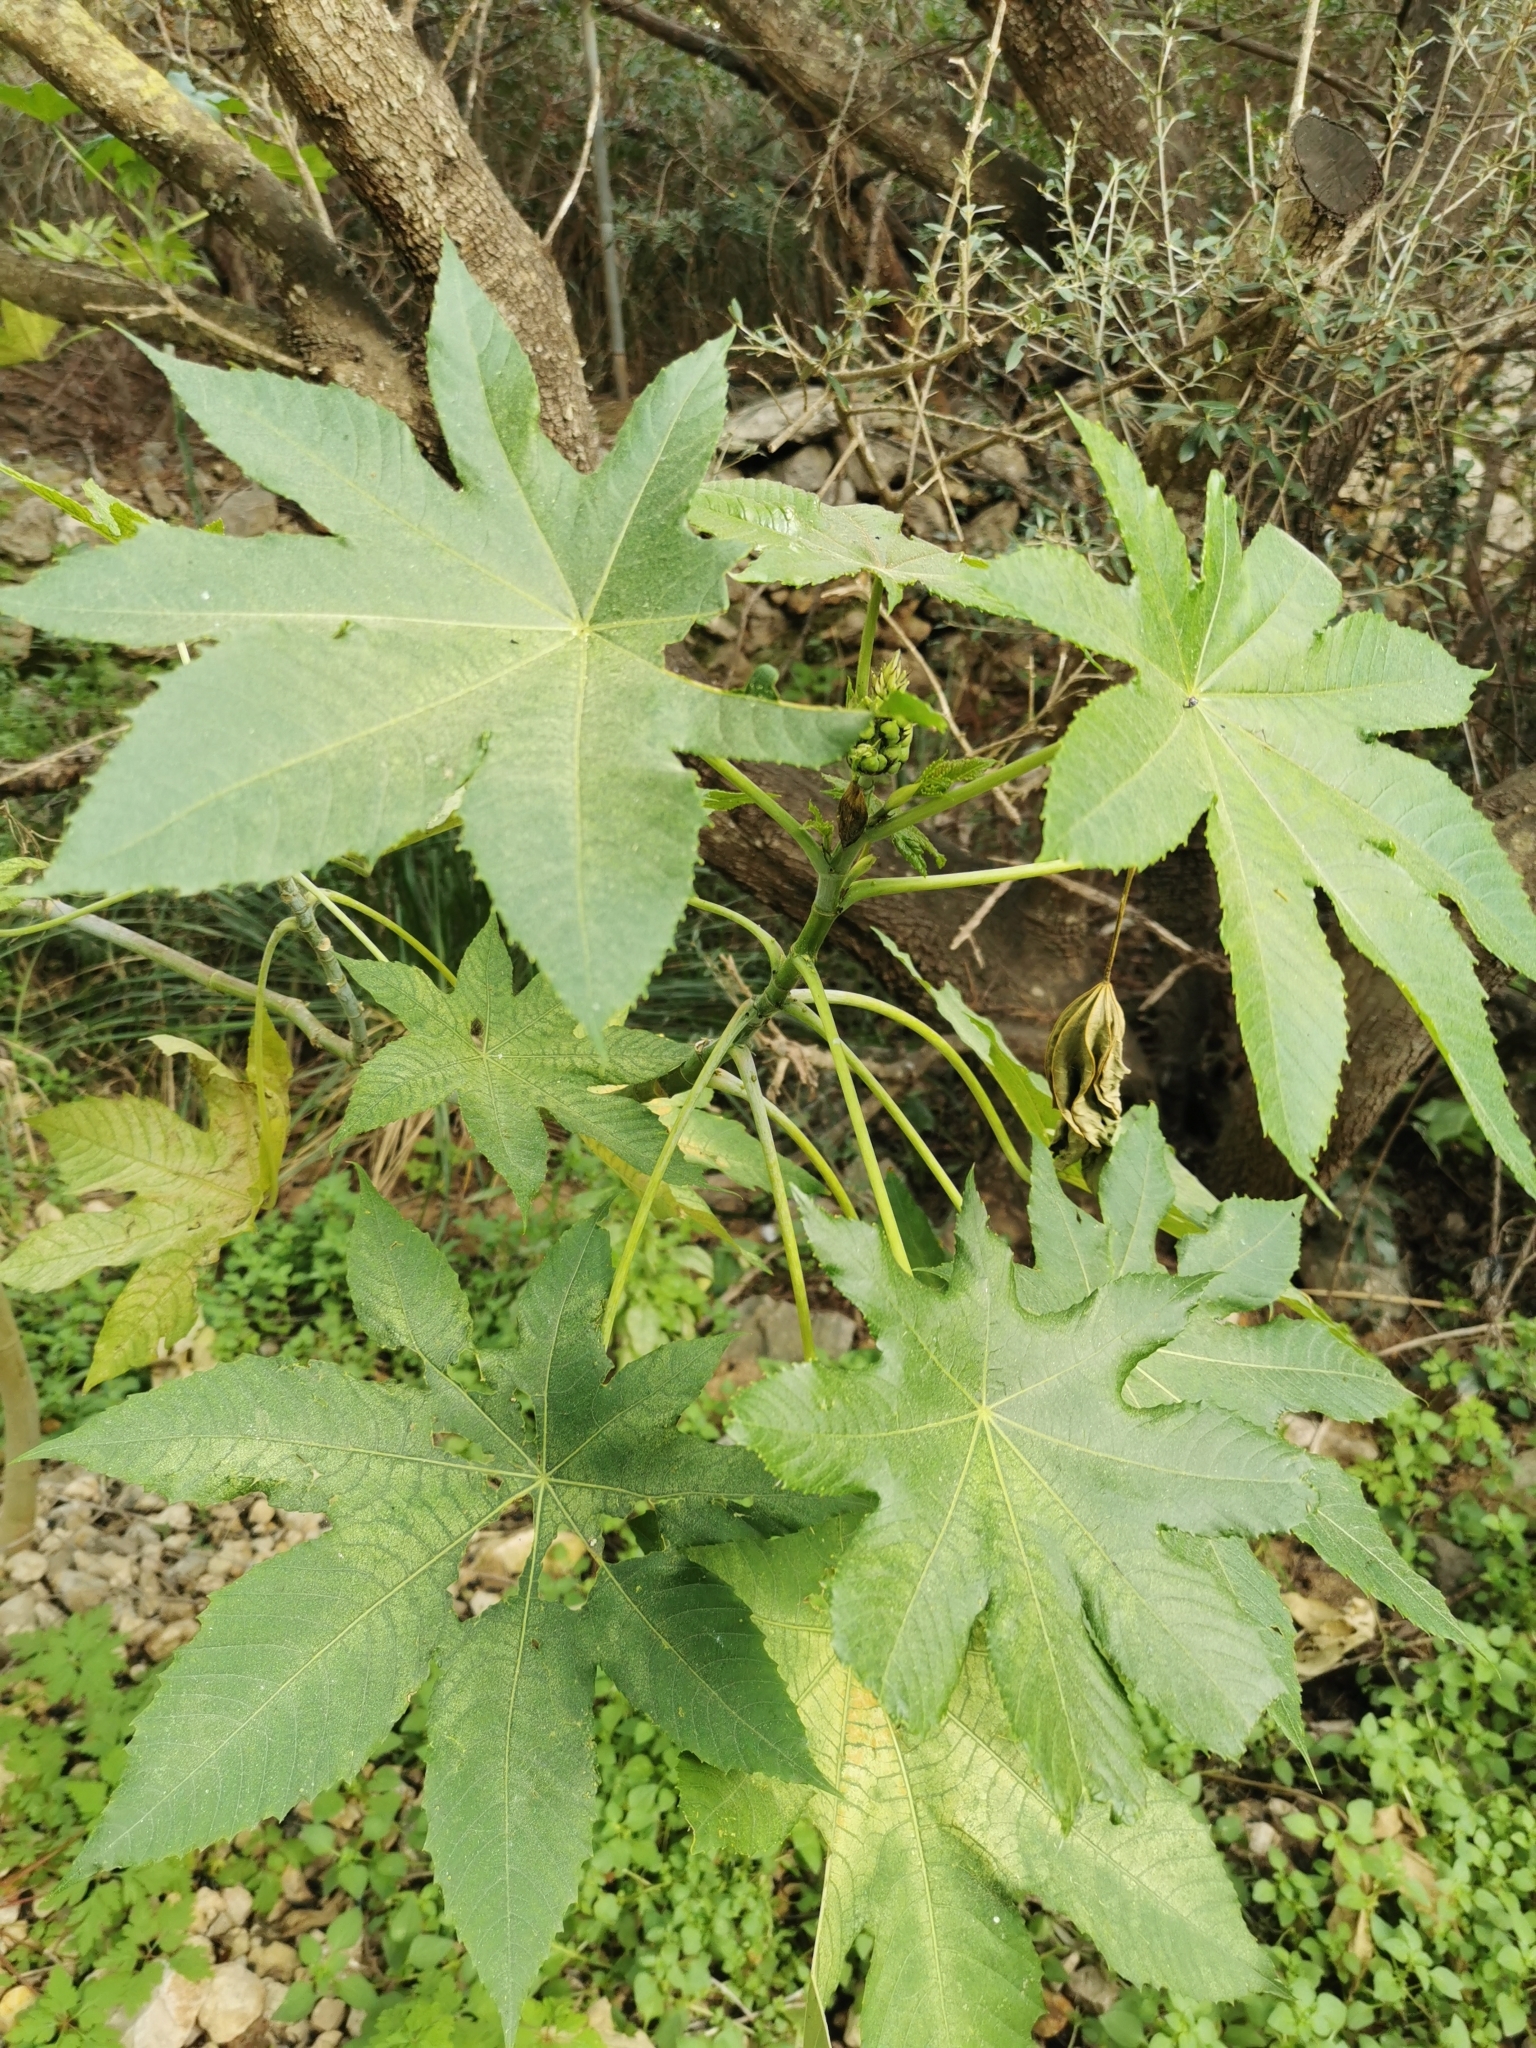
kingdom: Plantae
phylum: Tracheophyta
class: Magnoliopsida
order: Malpighiales
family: Euphorbiaceae
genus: Ricinus
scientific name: Ricinus communis
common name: Castor-oil-plant
